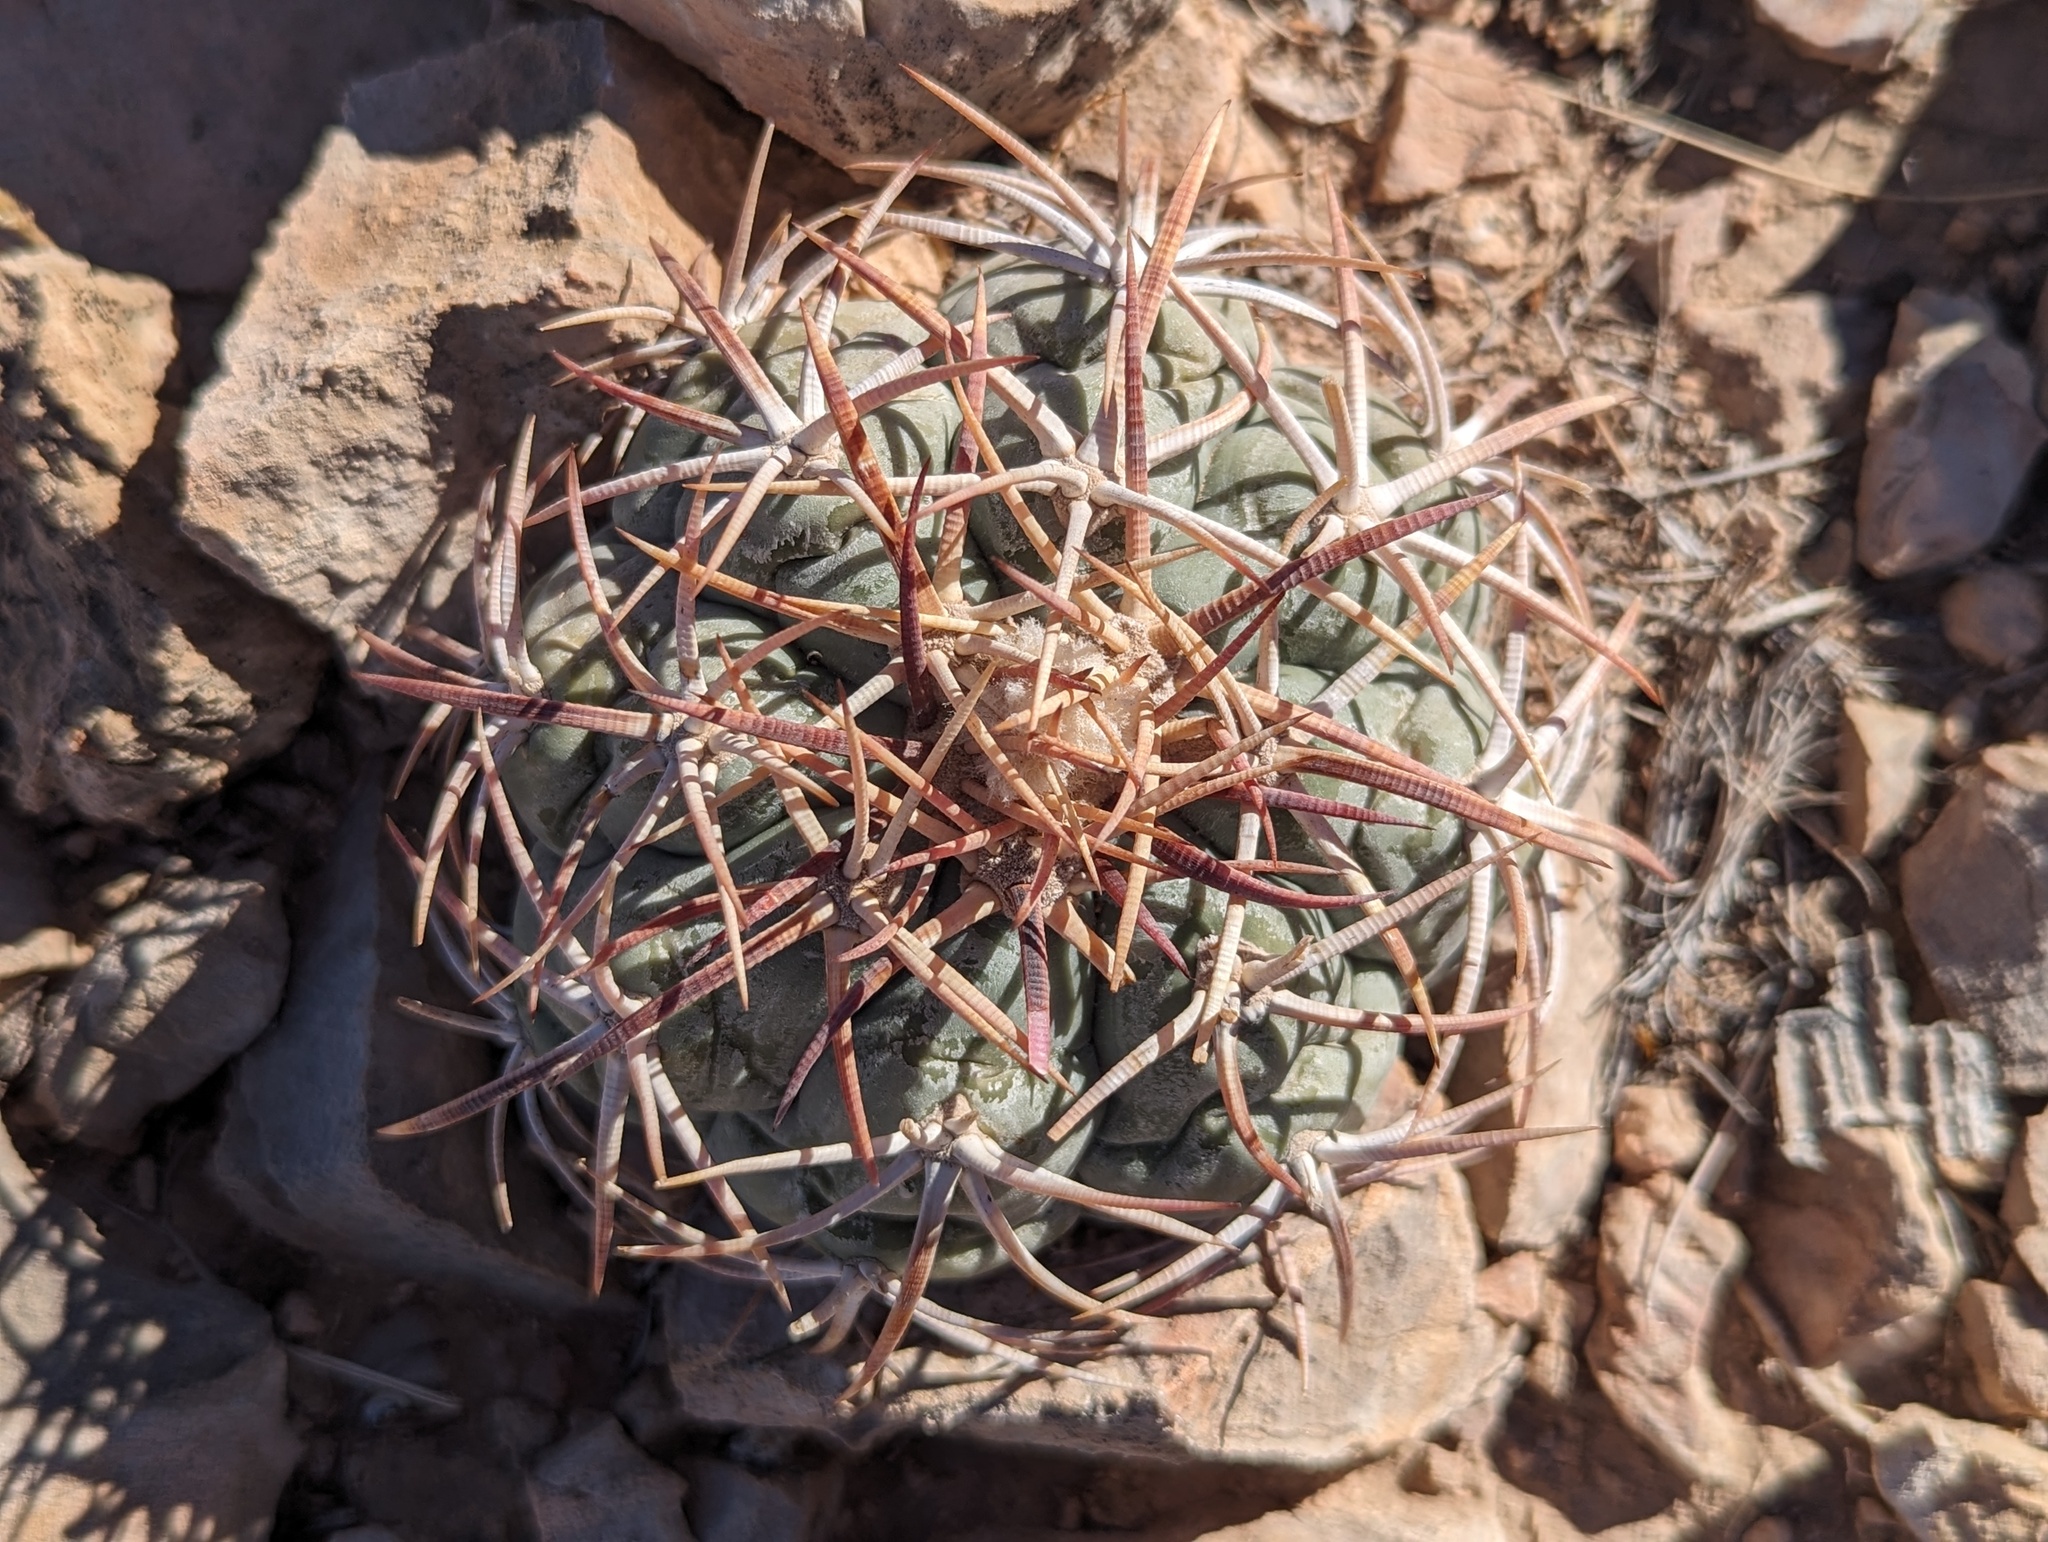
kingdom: Plantae
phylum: Tracheophyta
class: Magnoliopsida
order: Caryophyllales
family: Cactaceae
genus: Echinocactus
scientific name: Echinocactus horizonthalonius
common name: Devilshead
